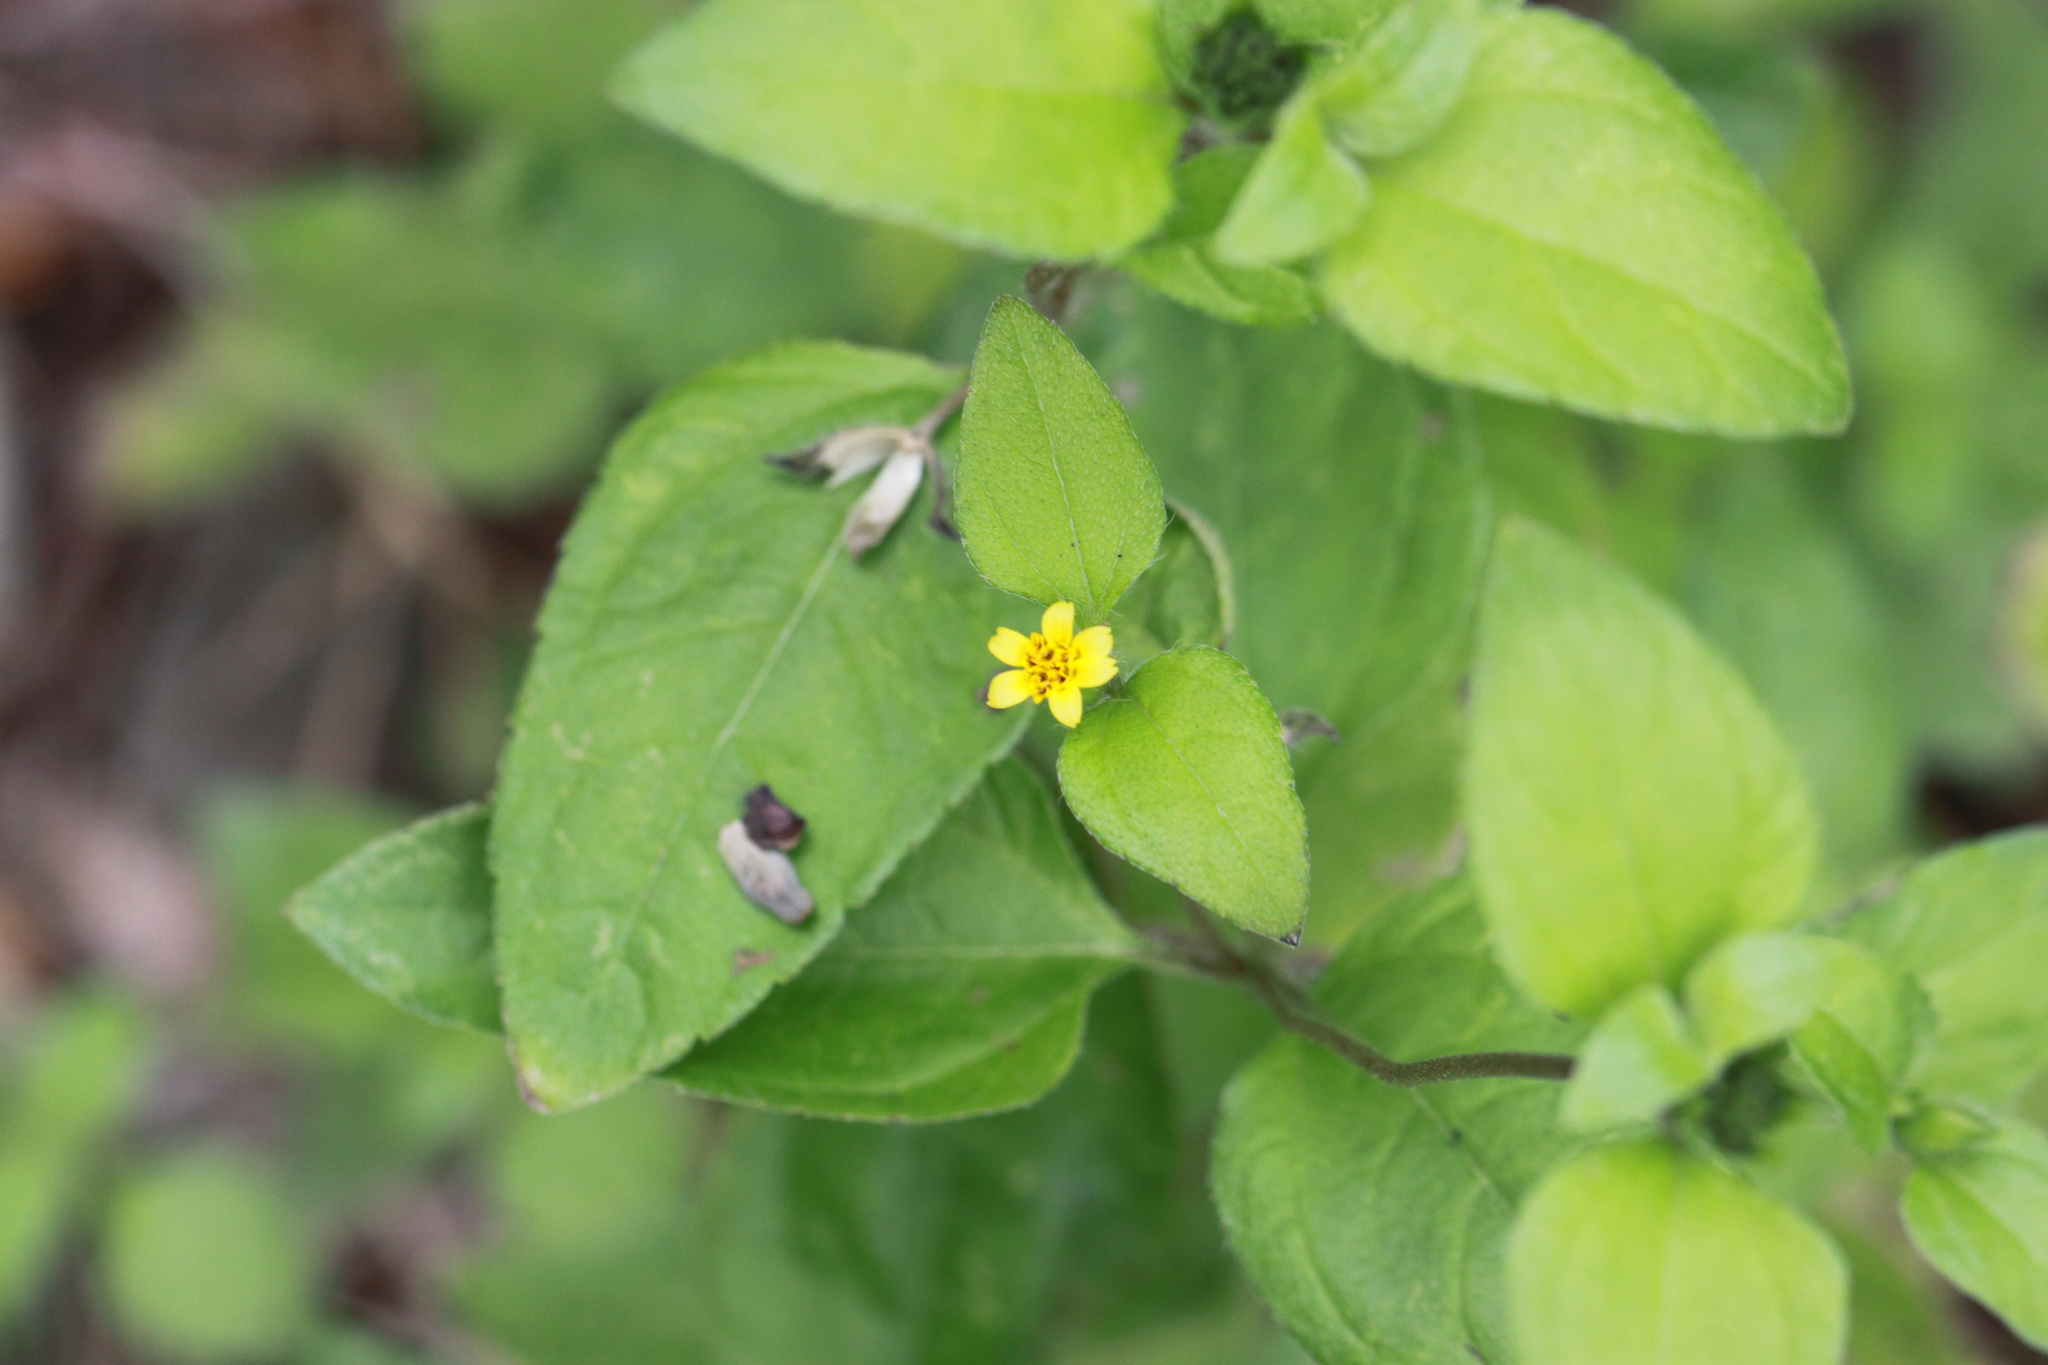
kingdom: Plantae
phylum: Tracheophyta
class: Magnoliopsida
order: Asterales
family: Asteraceae
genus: Calyptocarpus
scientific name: Calyptocarpus vialis
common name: Straggler daisy
